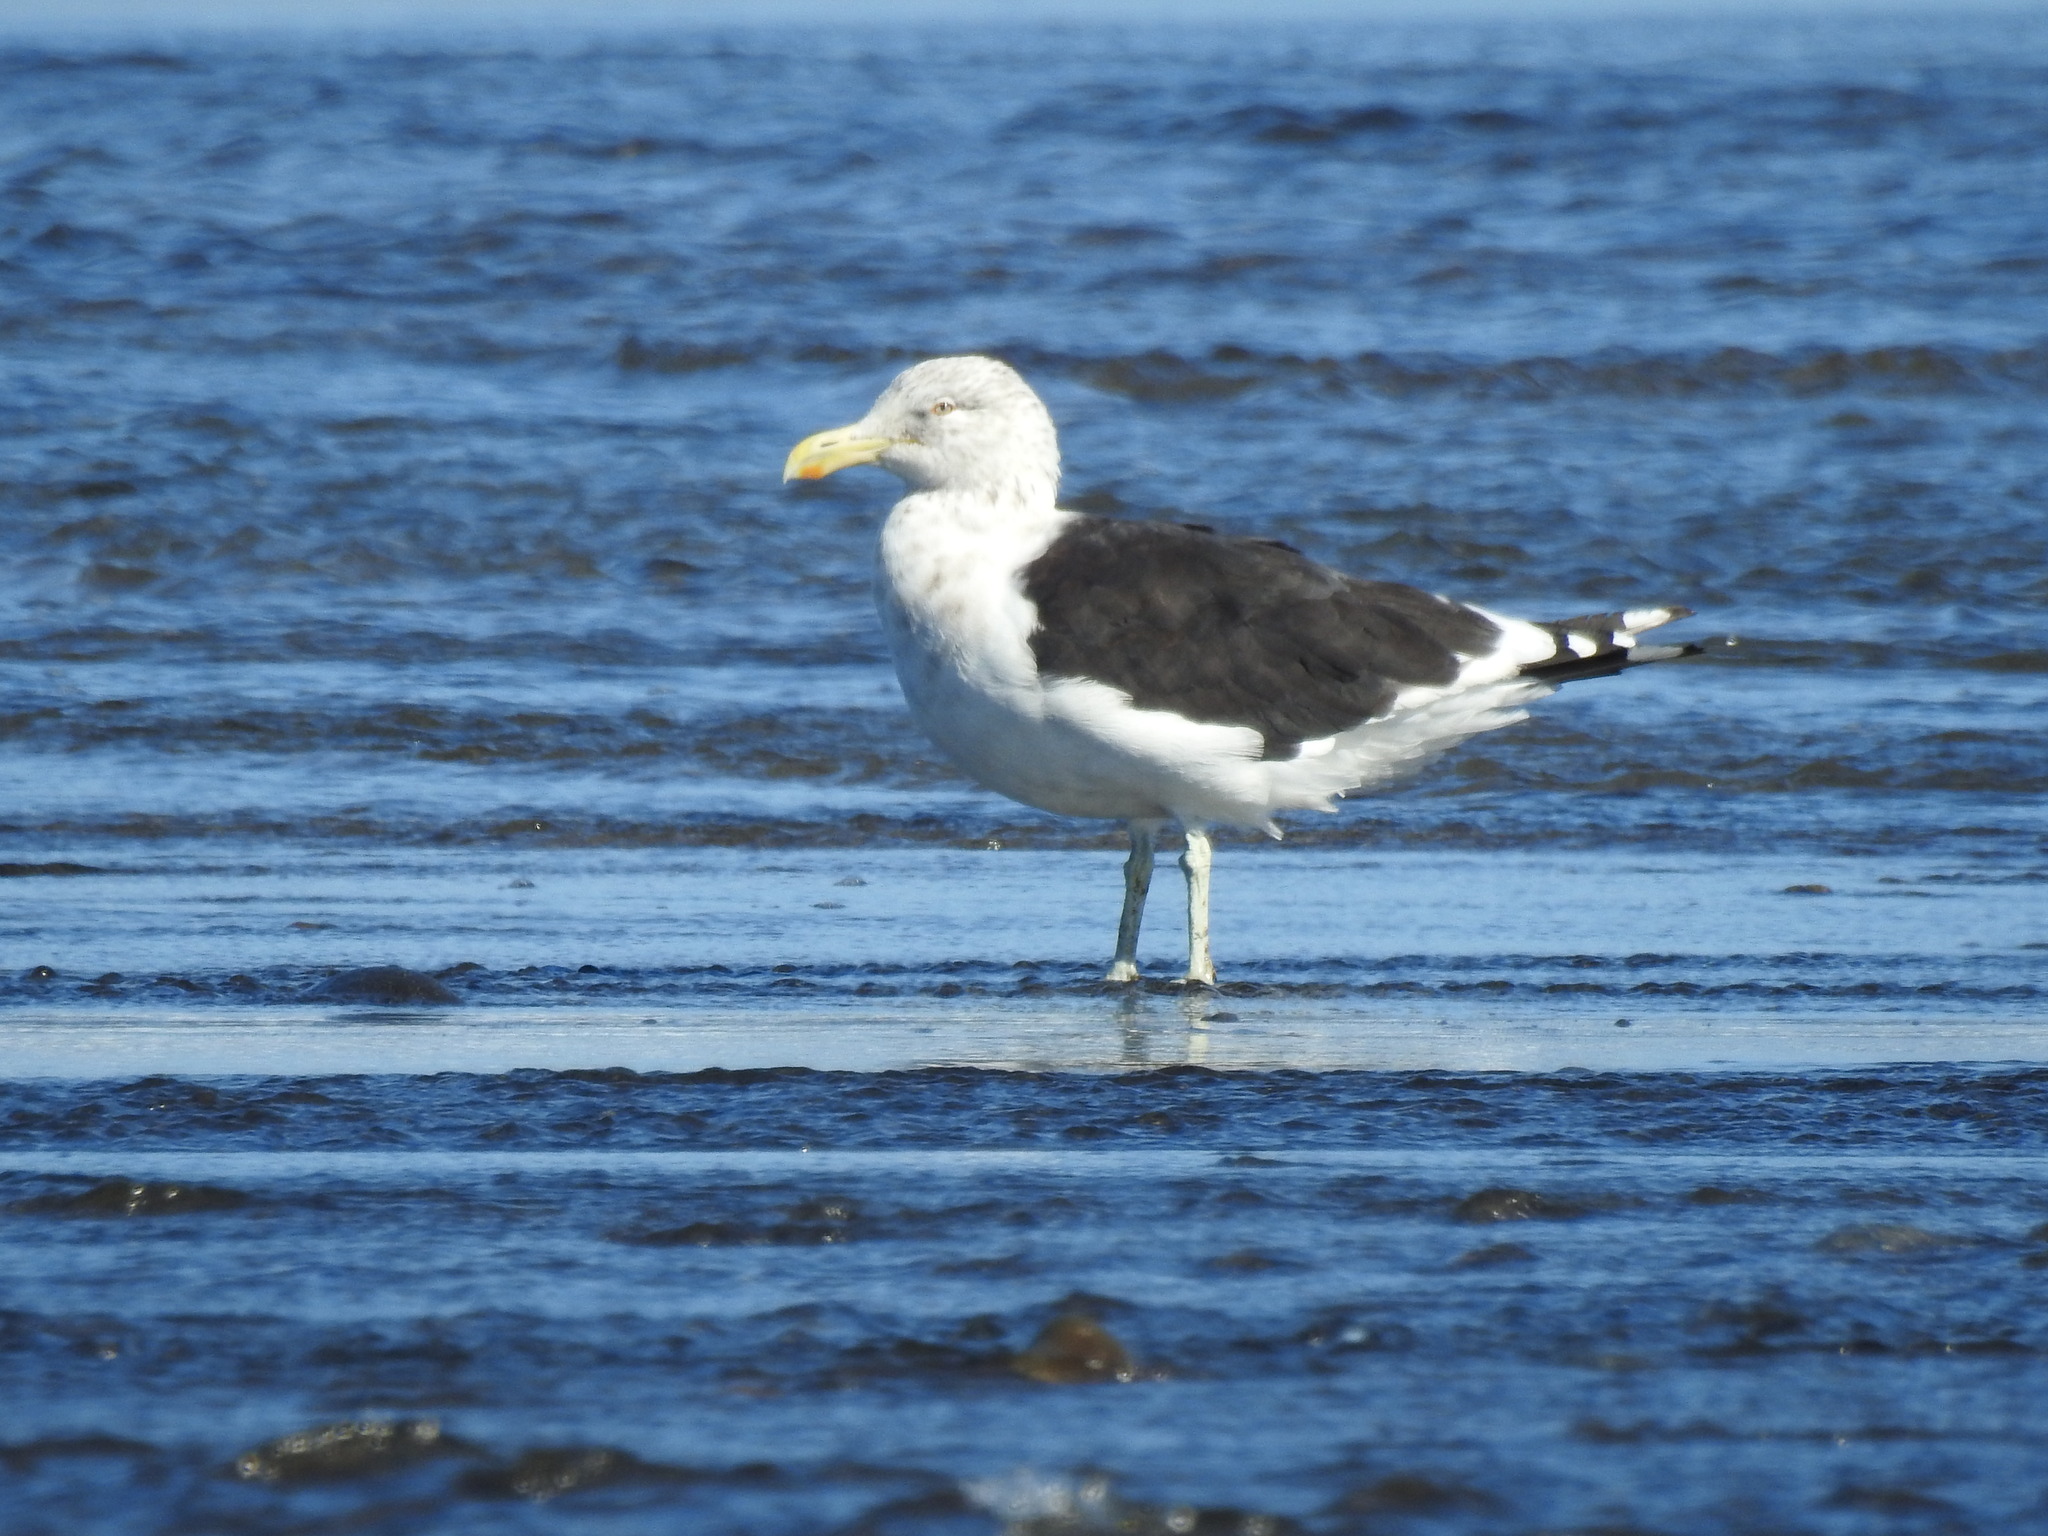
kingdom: Animalia
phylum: Chordata
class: Aves
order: Charadriiformes
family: Laridae
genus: Larus
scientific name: Larus dominicanus
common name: Kelp gull
